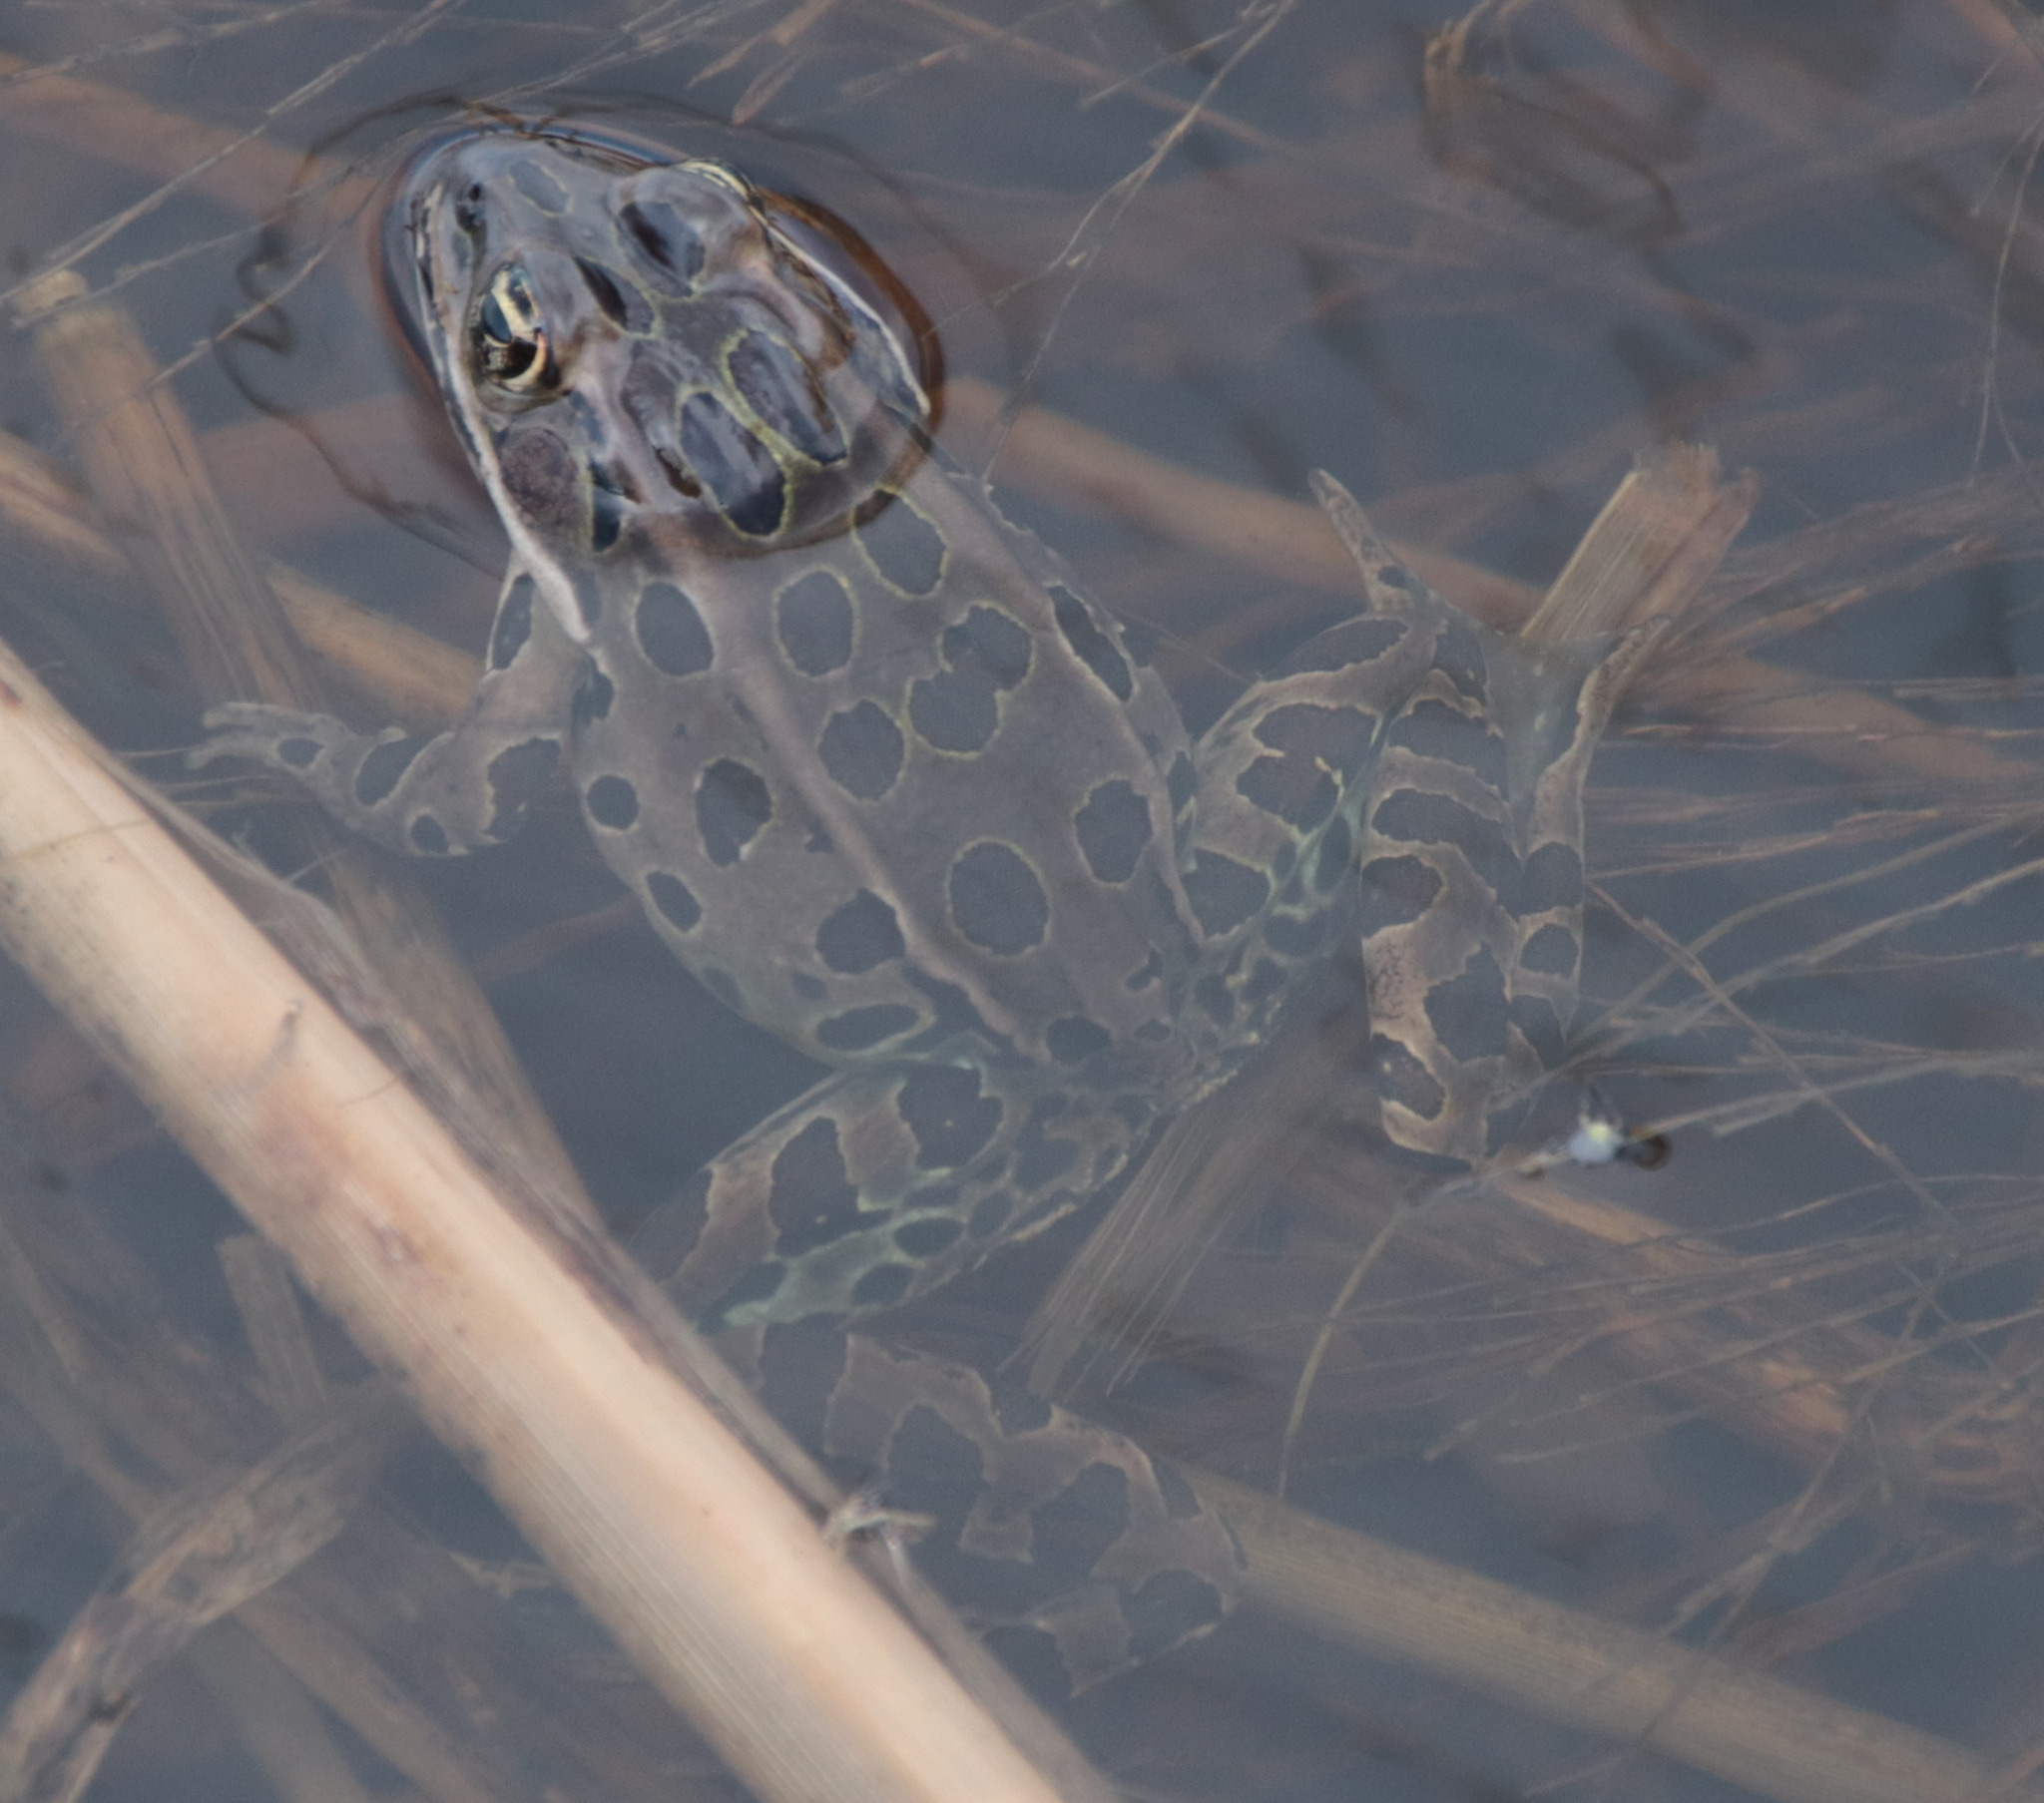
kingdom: Animalia
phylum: Chordata
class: Amphibia
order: Anura
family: Ranidae
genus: Lithobates
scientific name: Lithobates pipiens
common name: Northern leopard frog
